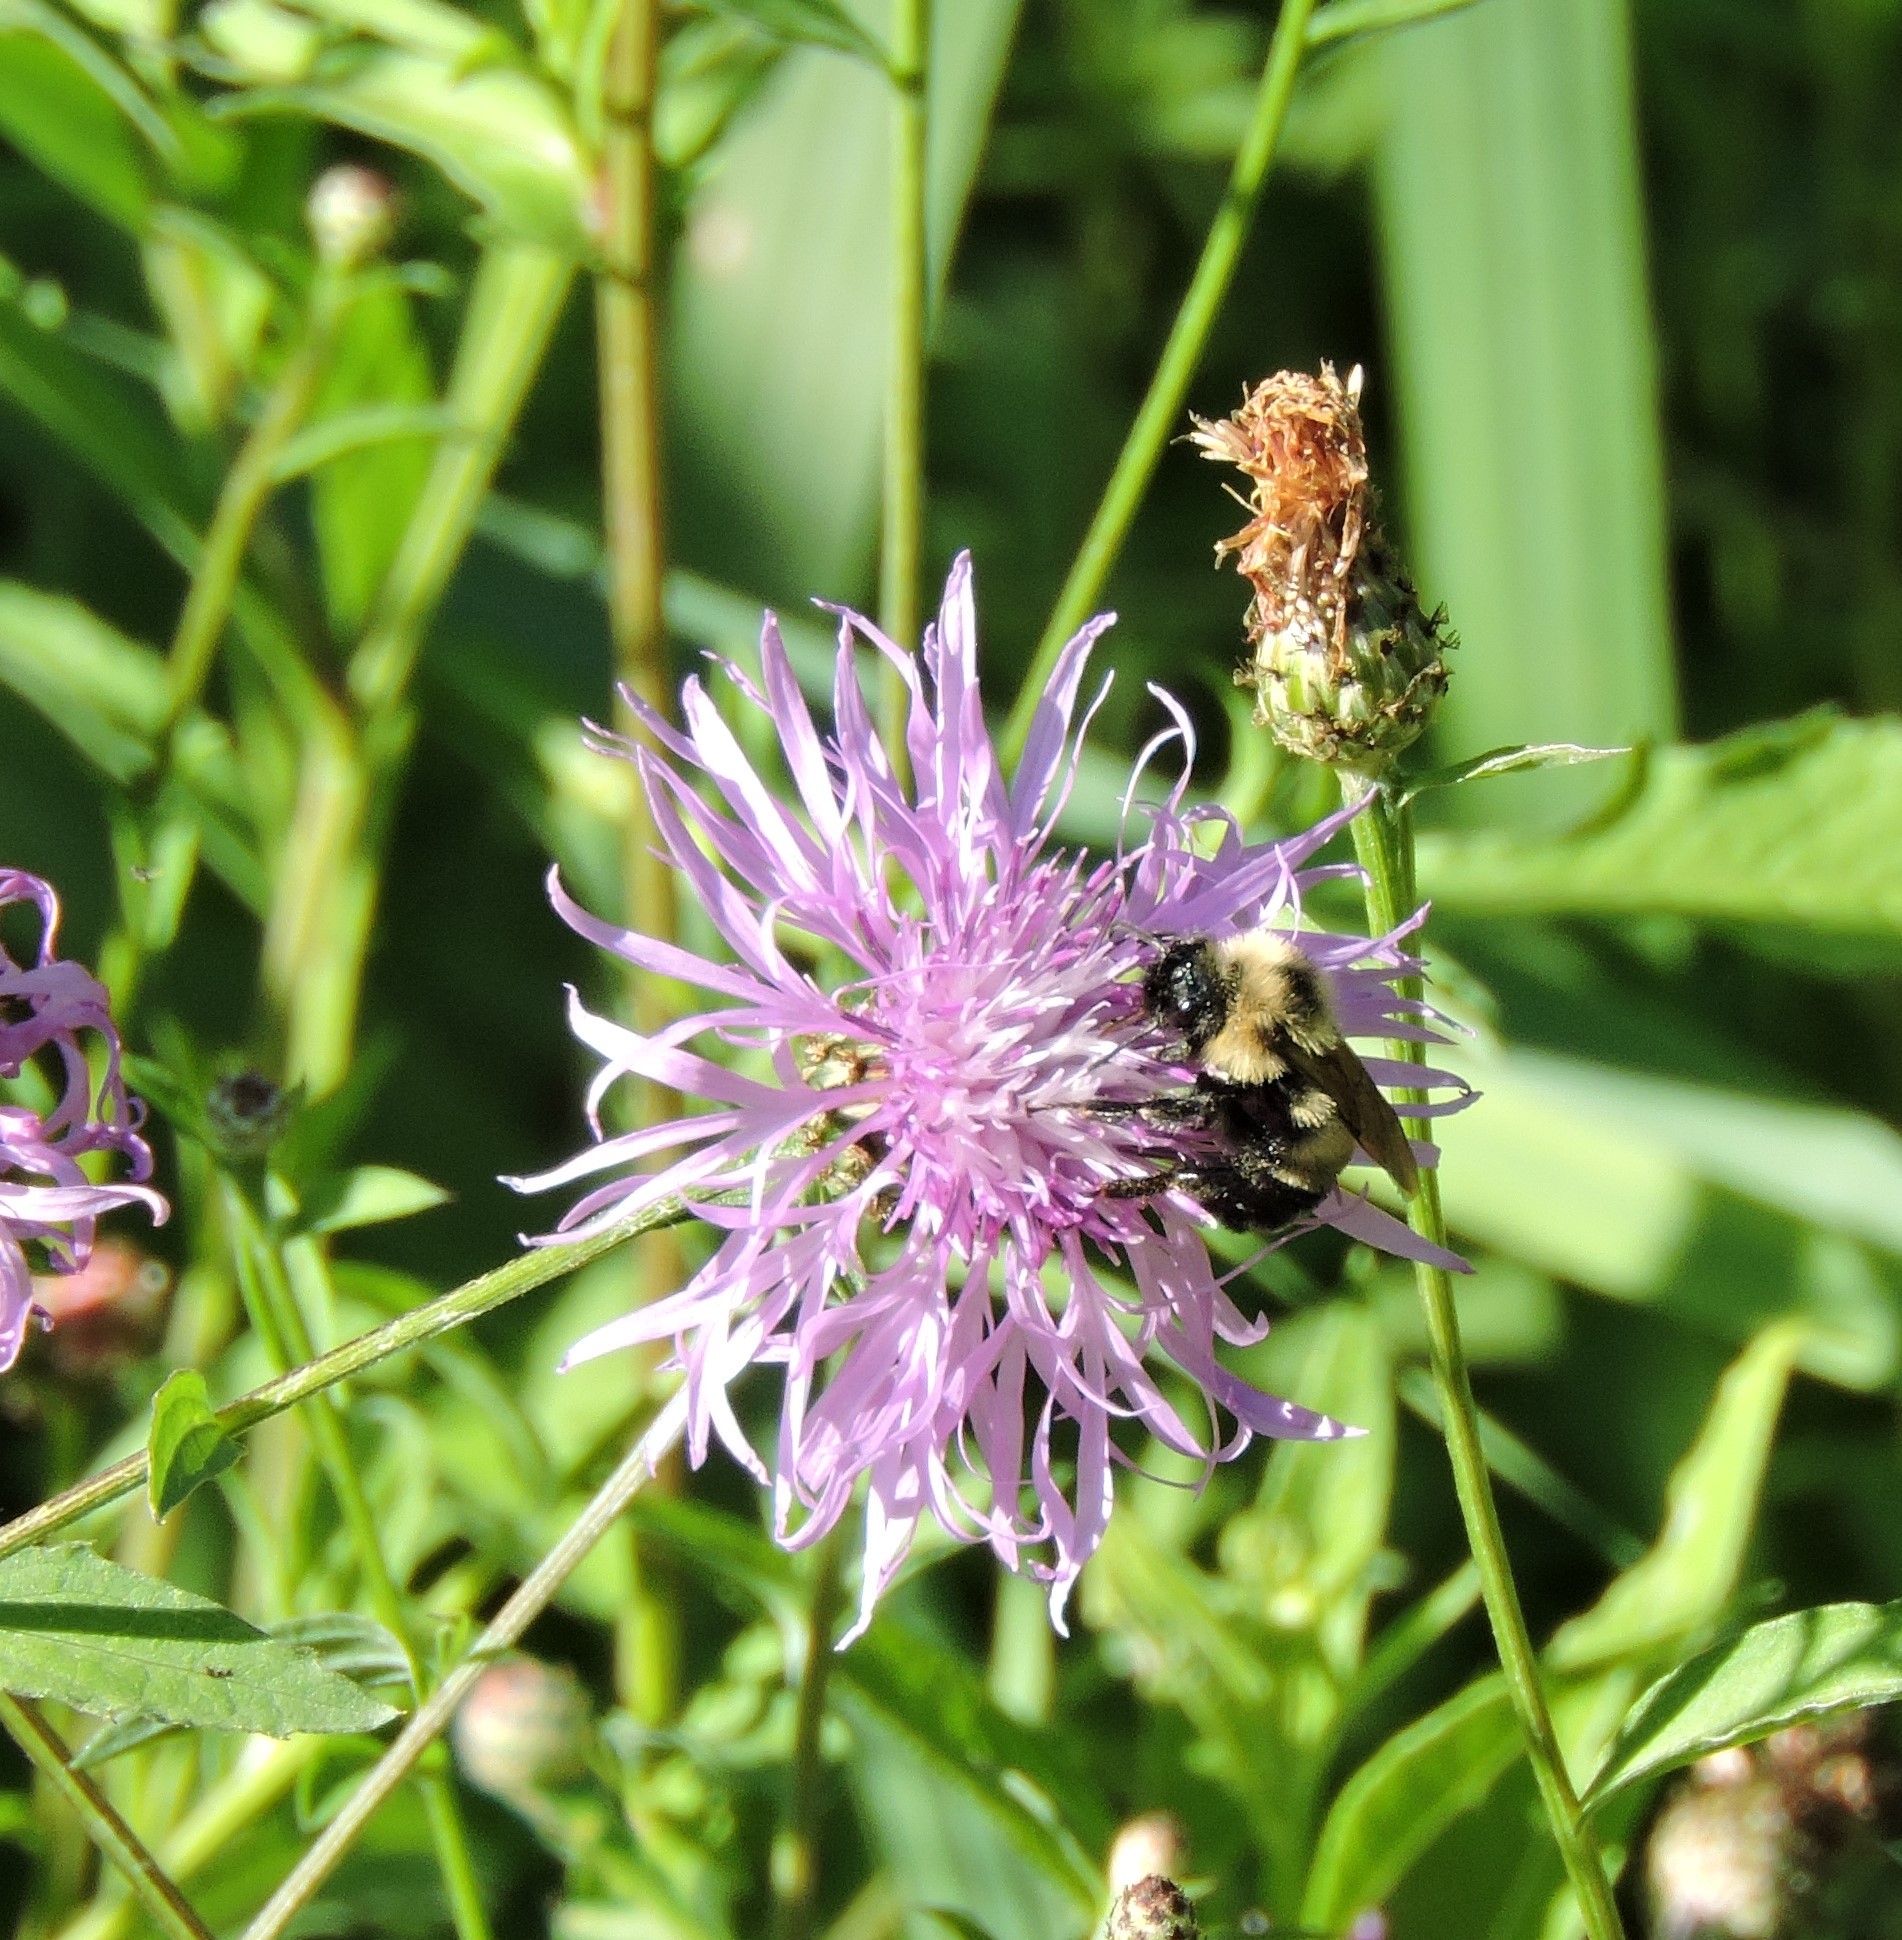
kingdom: Animalia
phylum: Arthropoda
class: Insecta
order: Hymenoptera
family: Apidae
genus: Bombus
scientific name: Bombus citrinus
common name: Lemon cuckoo bumble bee
